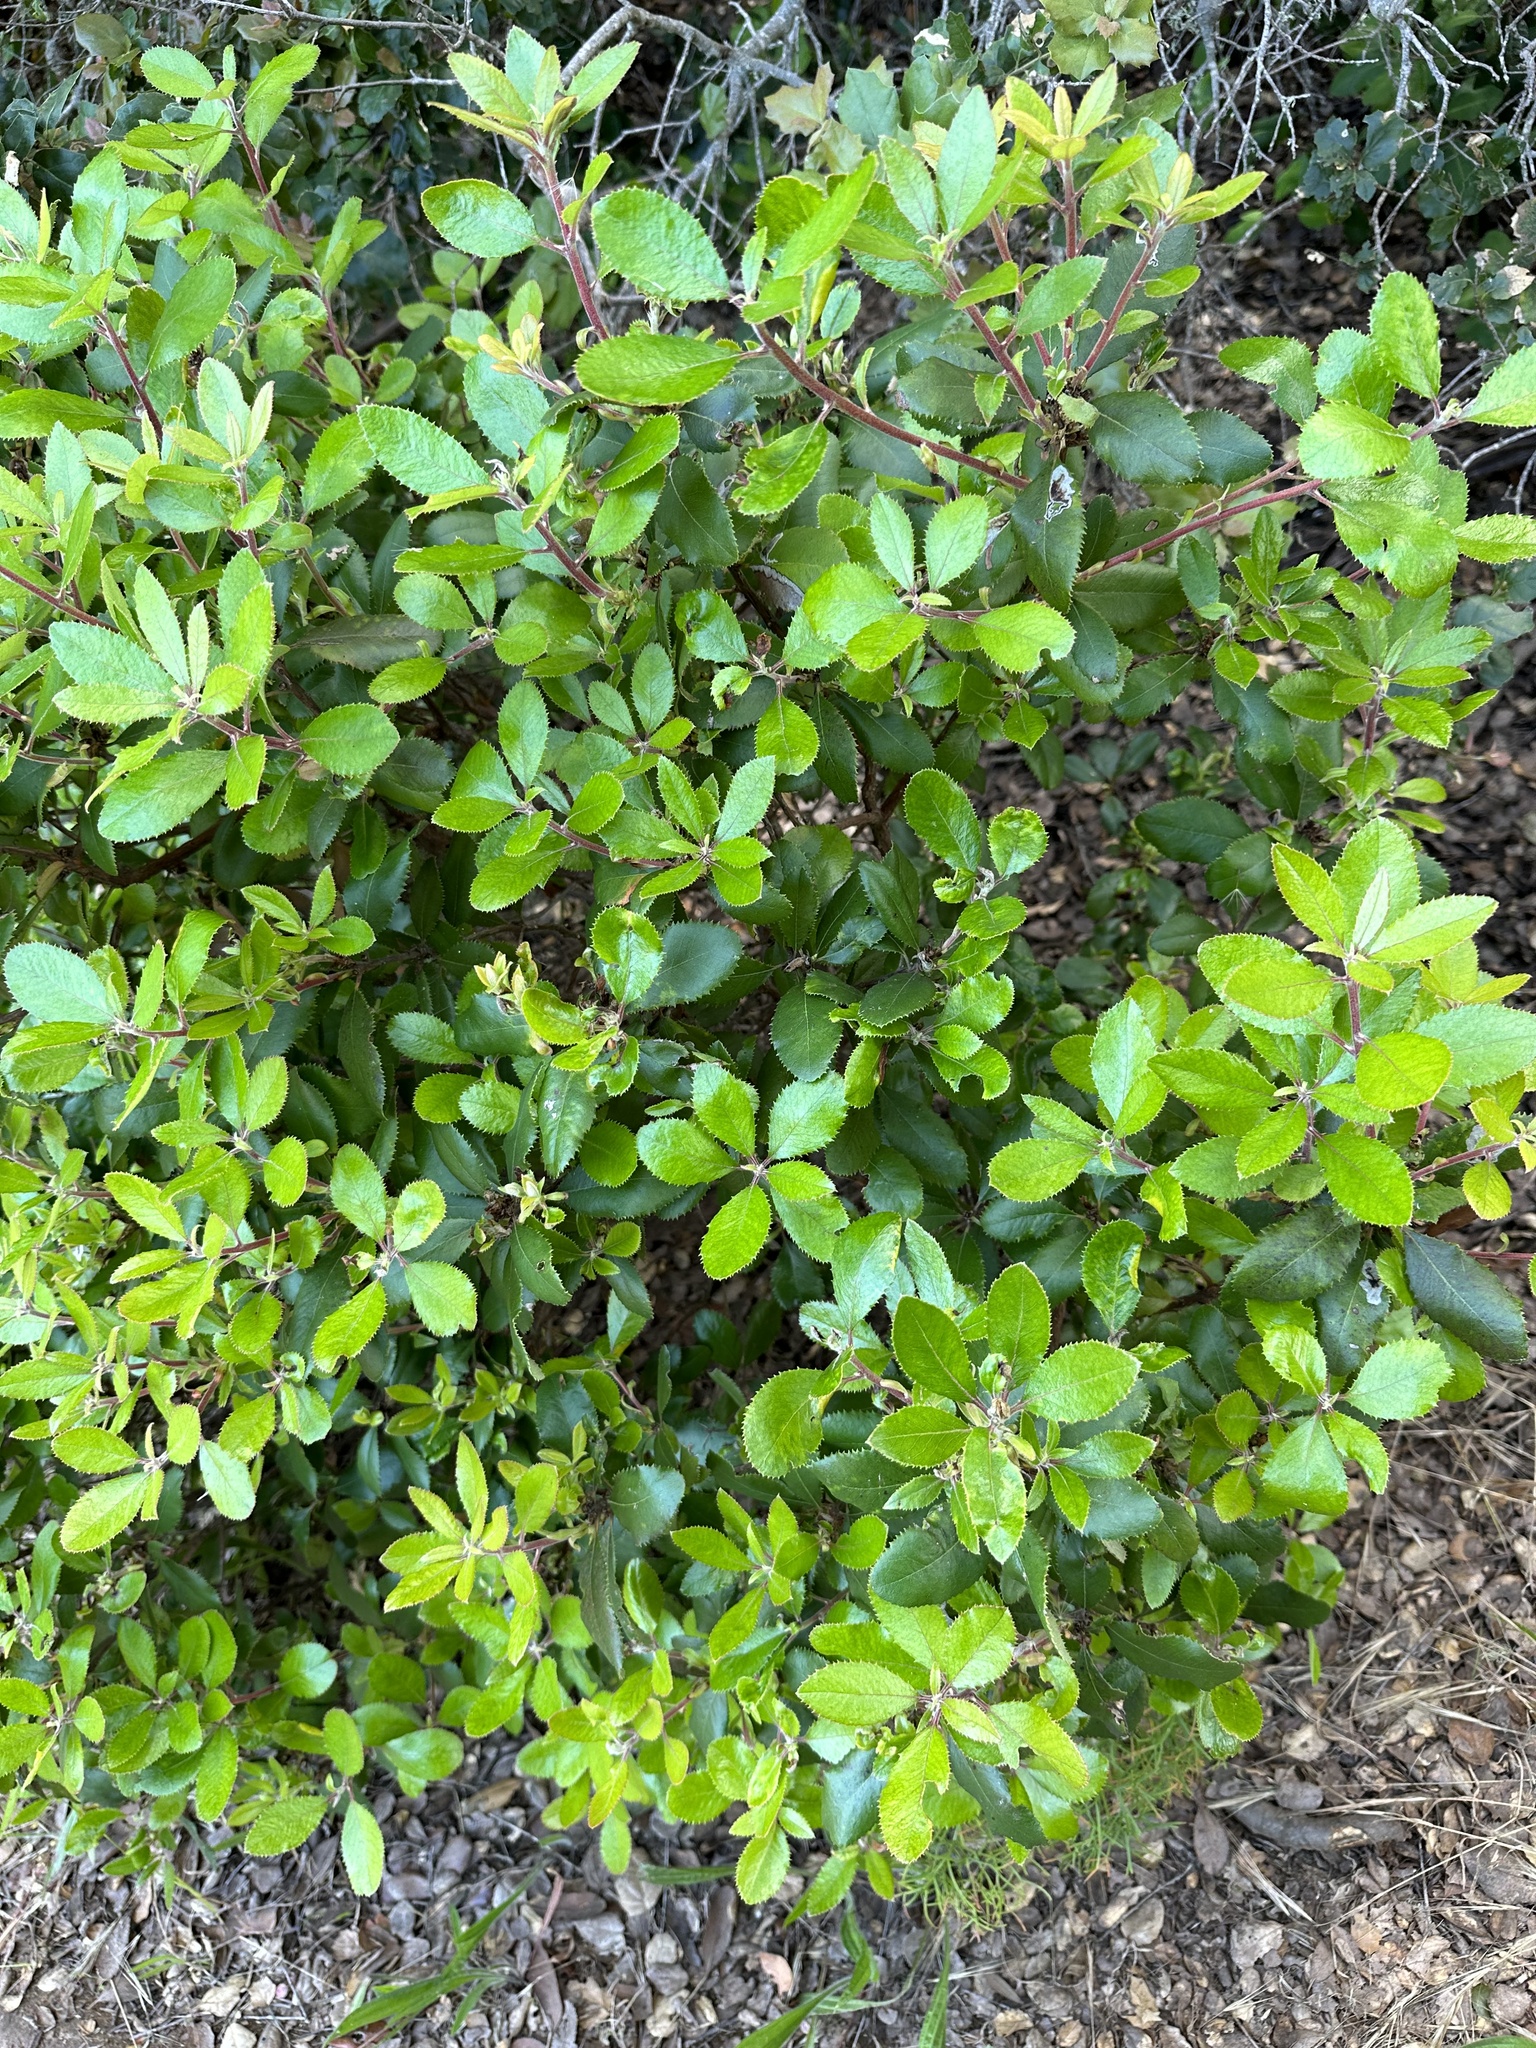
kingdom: Plantae
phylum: Tracheophyta
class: Magnoliopsida
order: Ericales
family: Ericaceae
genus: Comarostaphylis
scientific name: Comarostaphylis diversifolia
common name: Summer-holly
